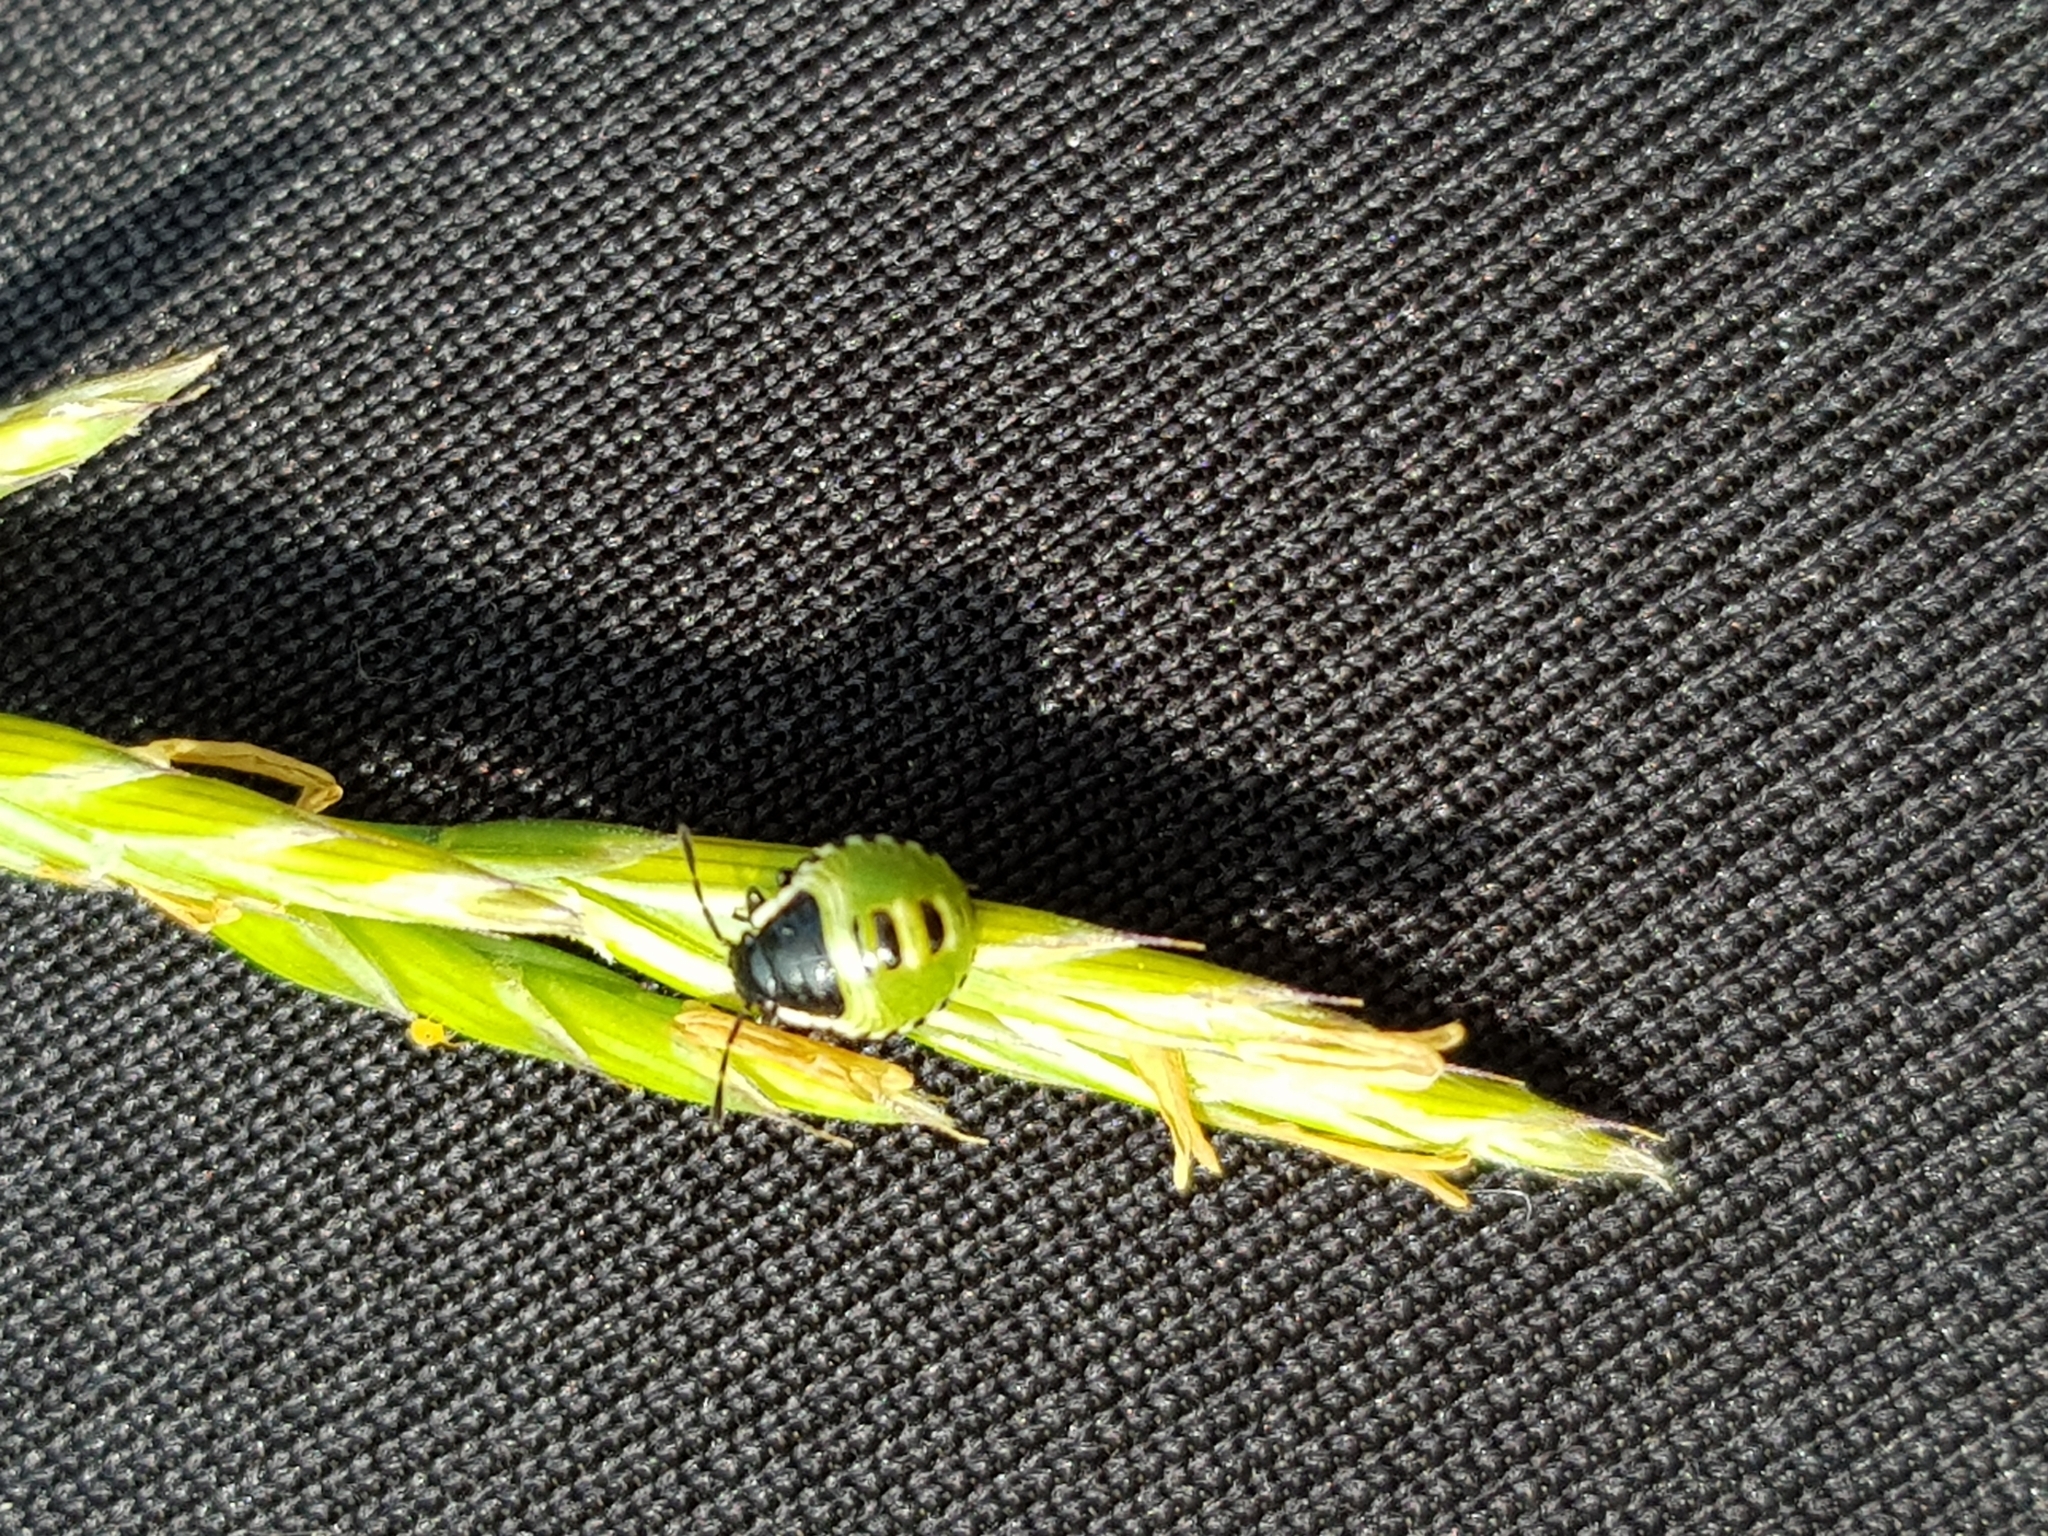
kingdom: Animalia
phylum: Arthropoda
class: Insecta
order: Hemiptera
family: Pentatomidae
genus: Palomena
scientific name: Palomena prasina
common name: Green shieldbug
